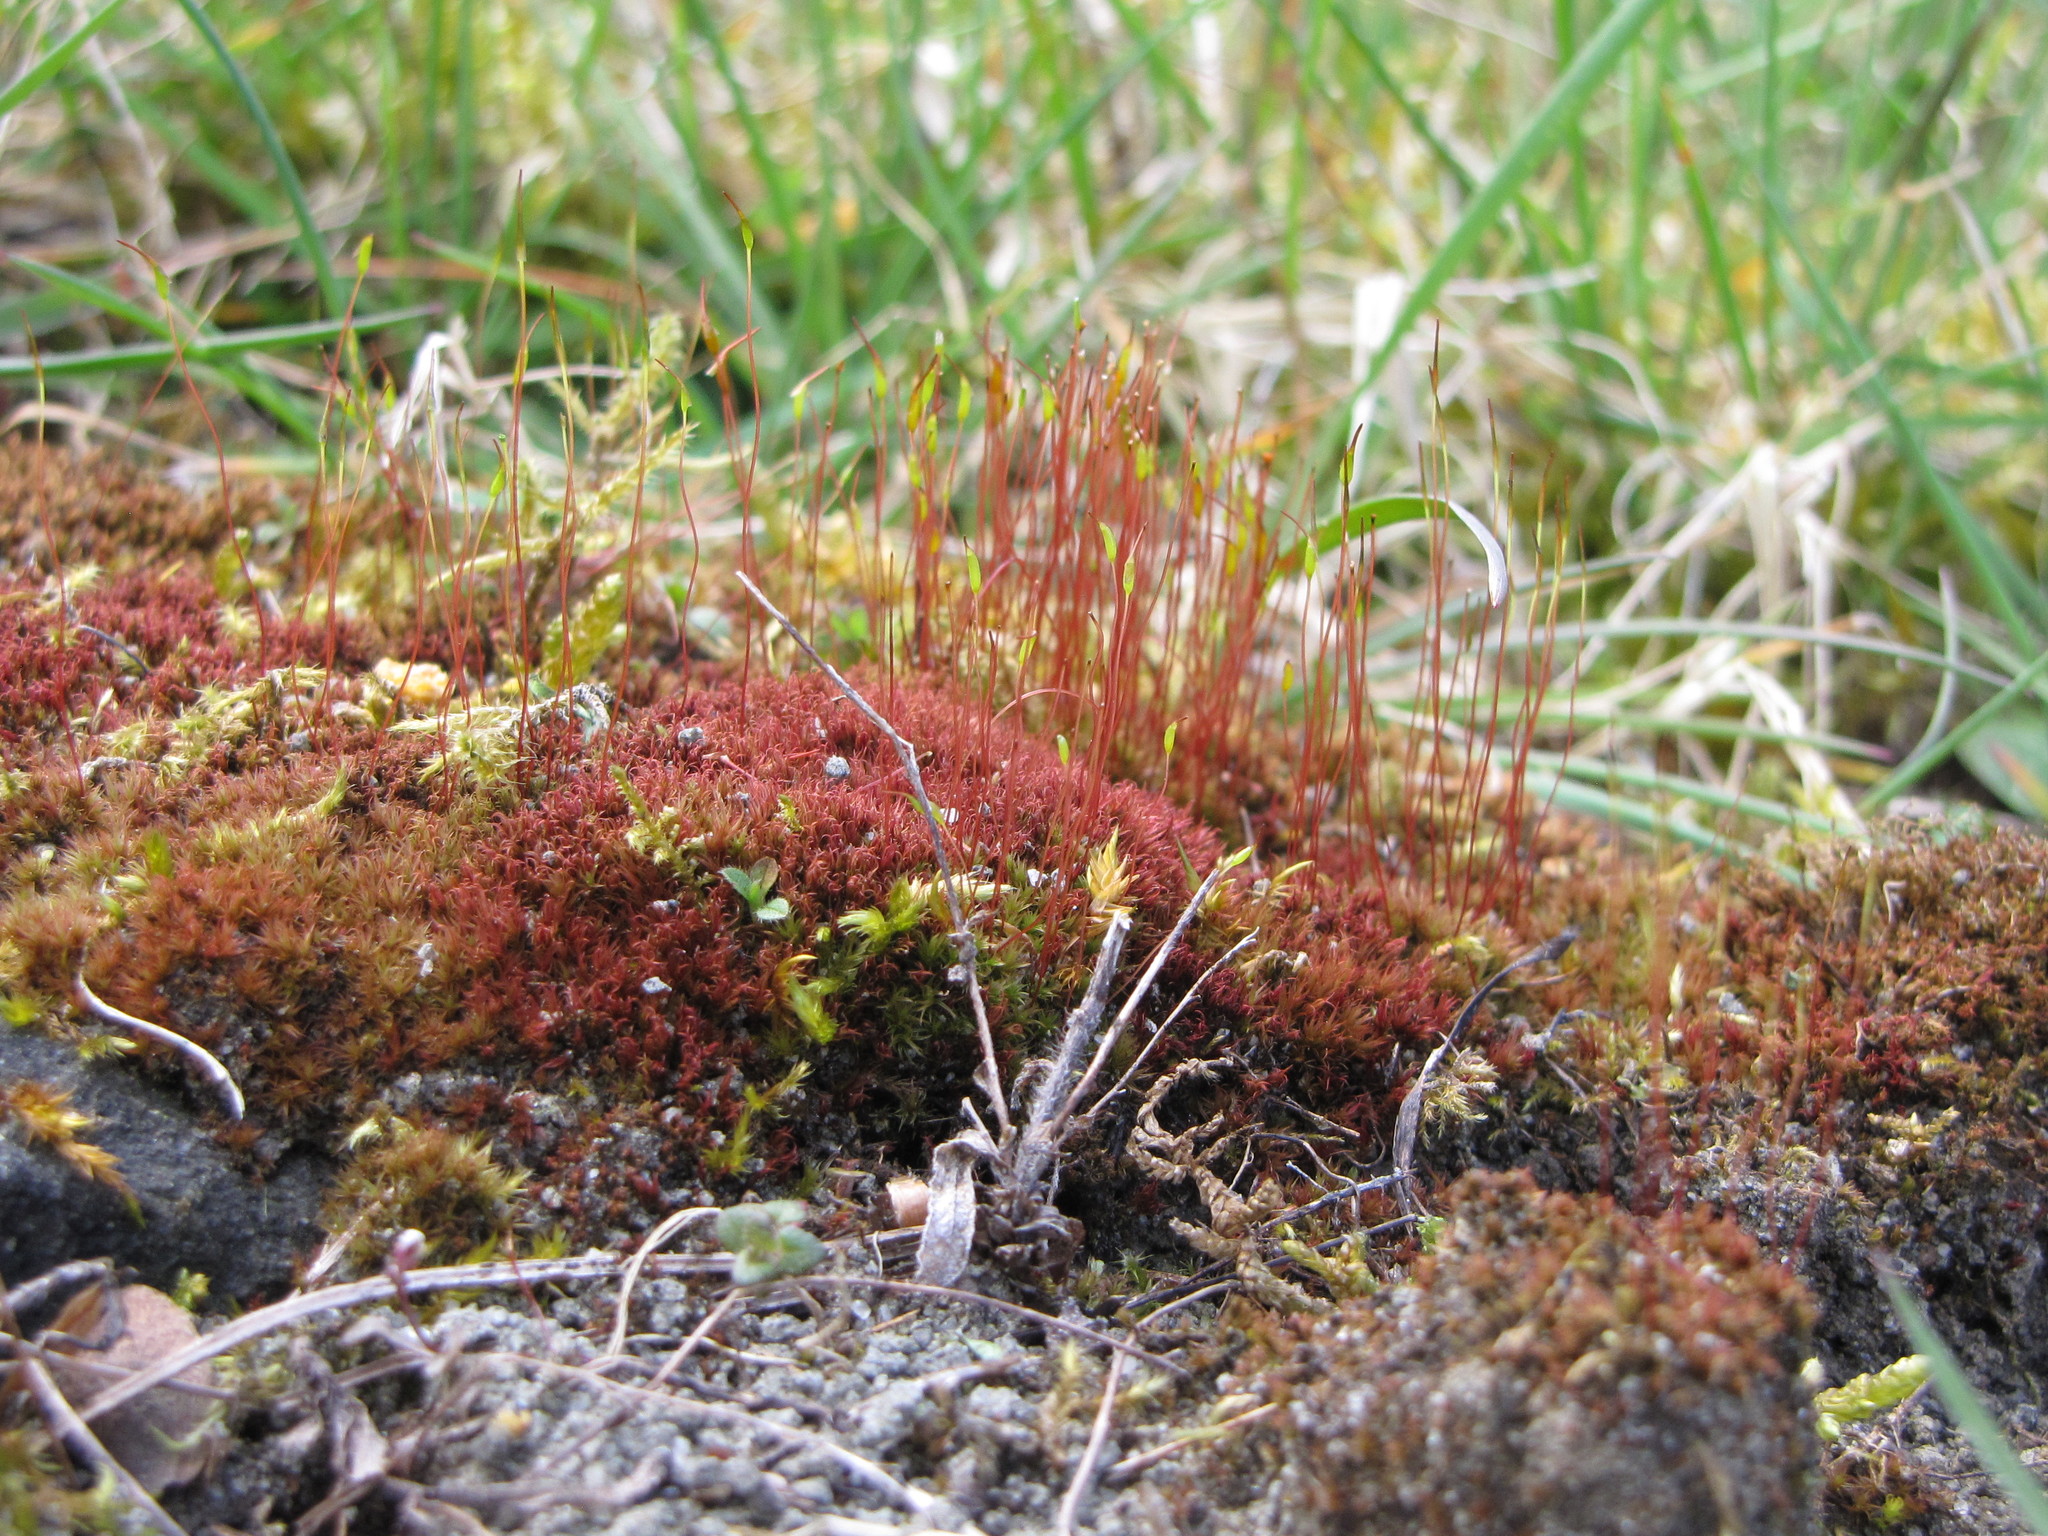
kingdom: Plantae
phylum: Bryophyta
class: Bryopsida
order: Dicranales
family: Ditrichaceae
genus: Ceratodon
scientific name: Ceratodon purpureus
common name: Redshank
